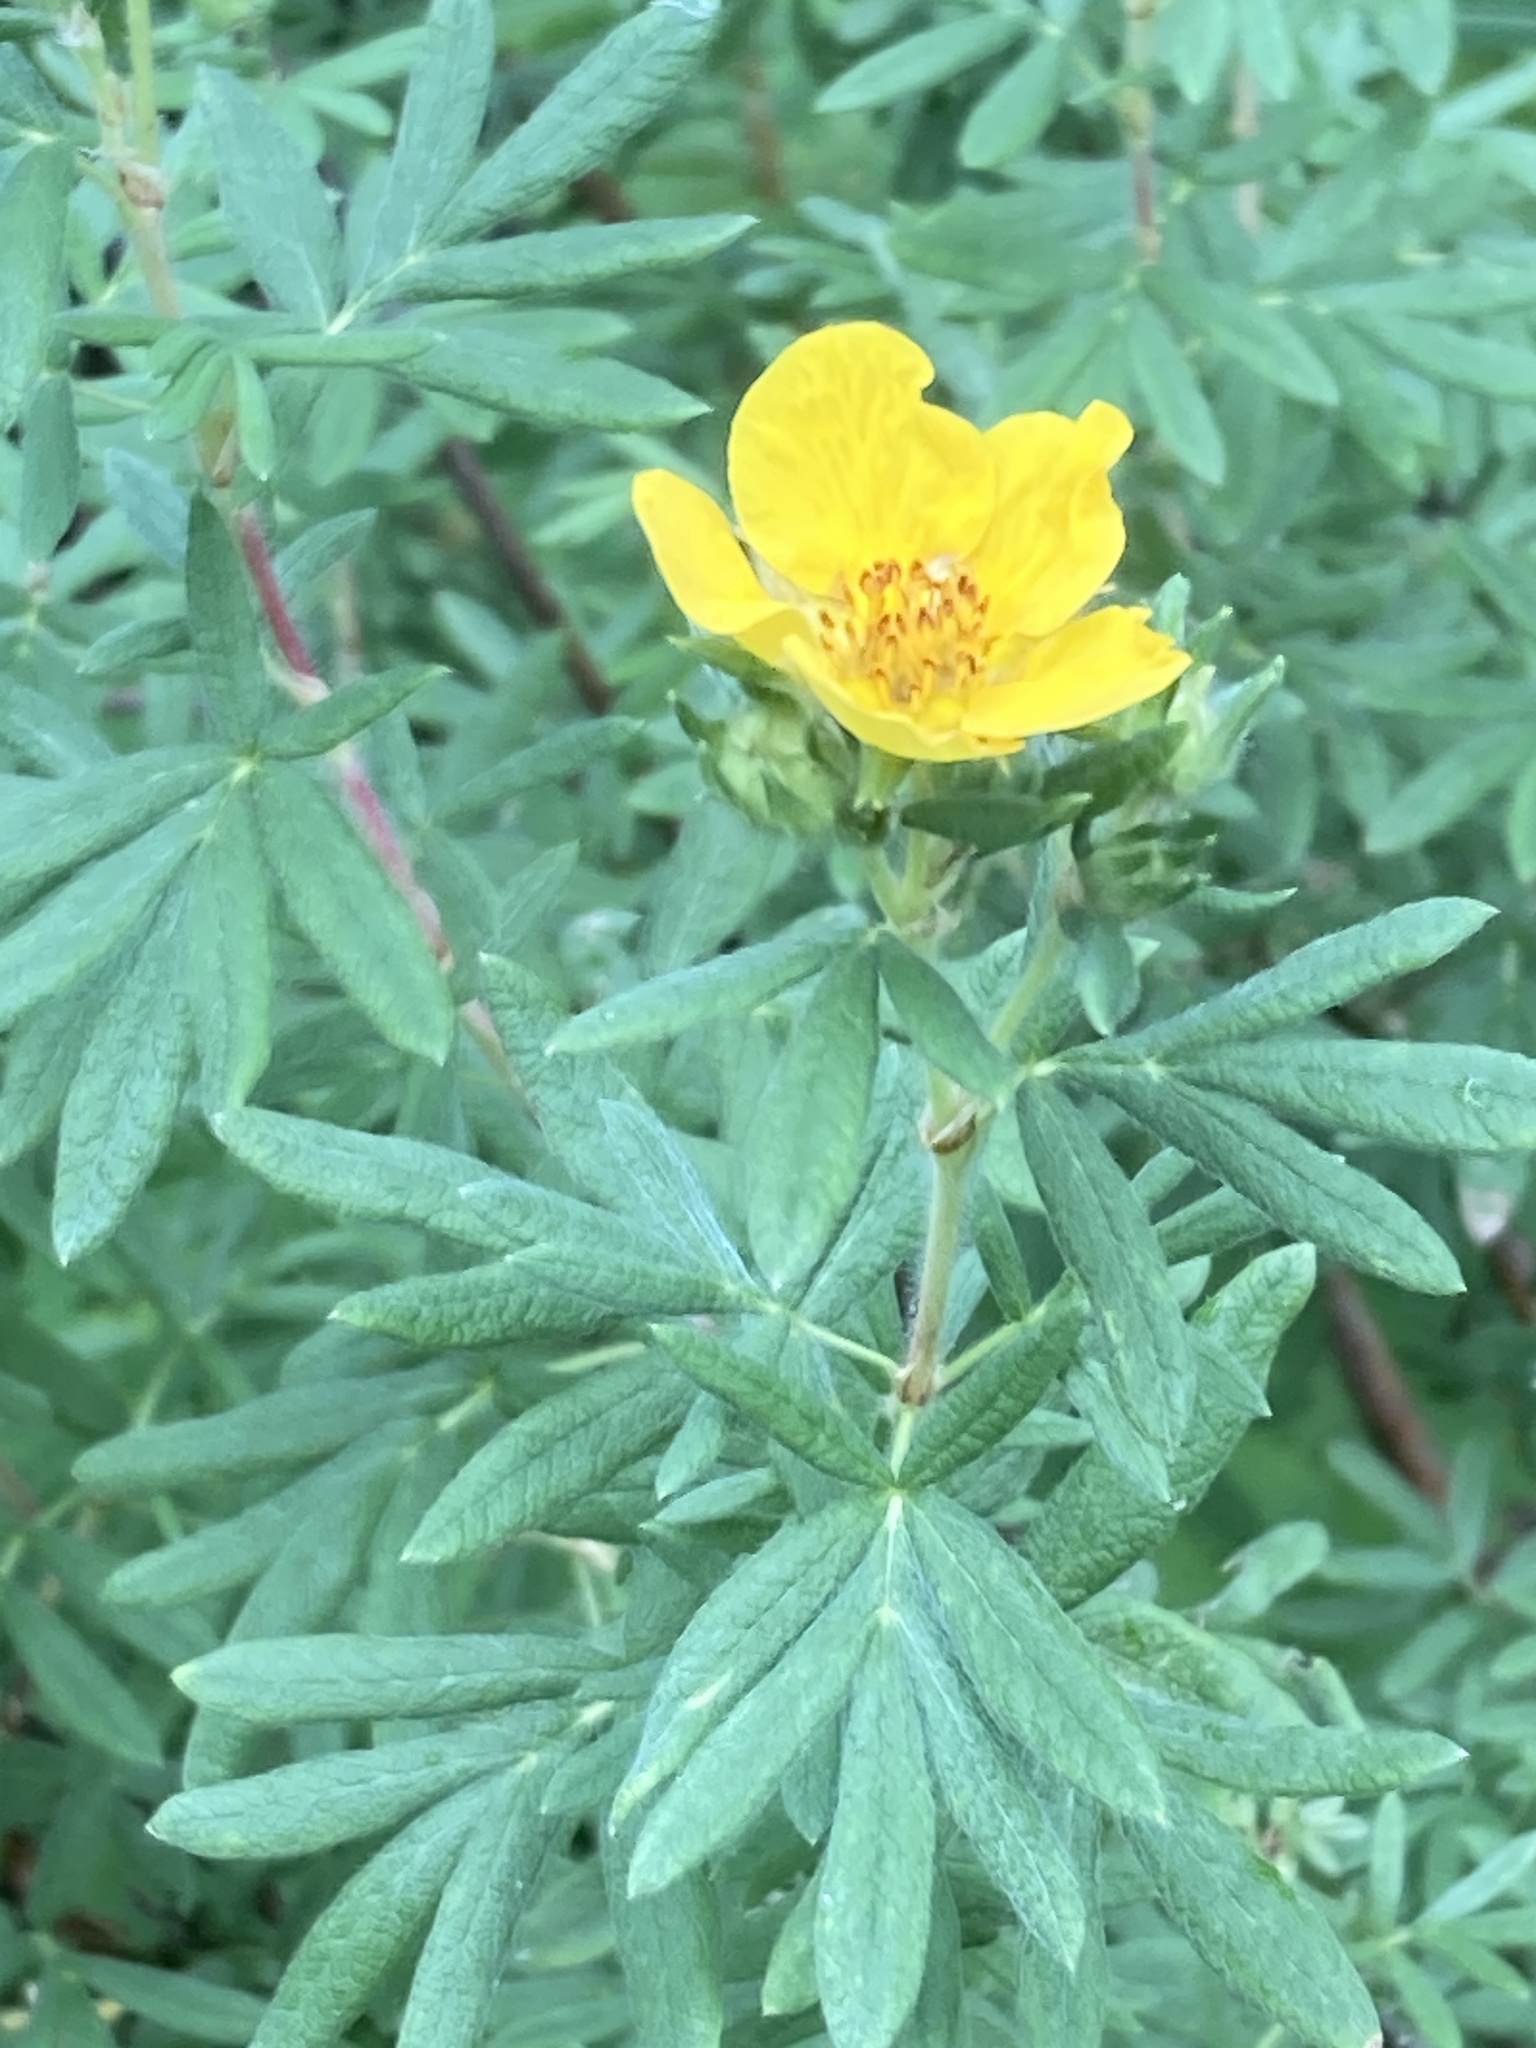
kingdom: Plantae
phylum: Tracheophyta
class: Magnoliopsida
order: Rosales
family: Rosaceae
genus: Dasiphora
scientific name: Dasiphora fruticosa
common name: Shrubby cinquefoil
